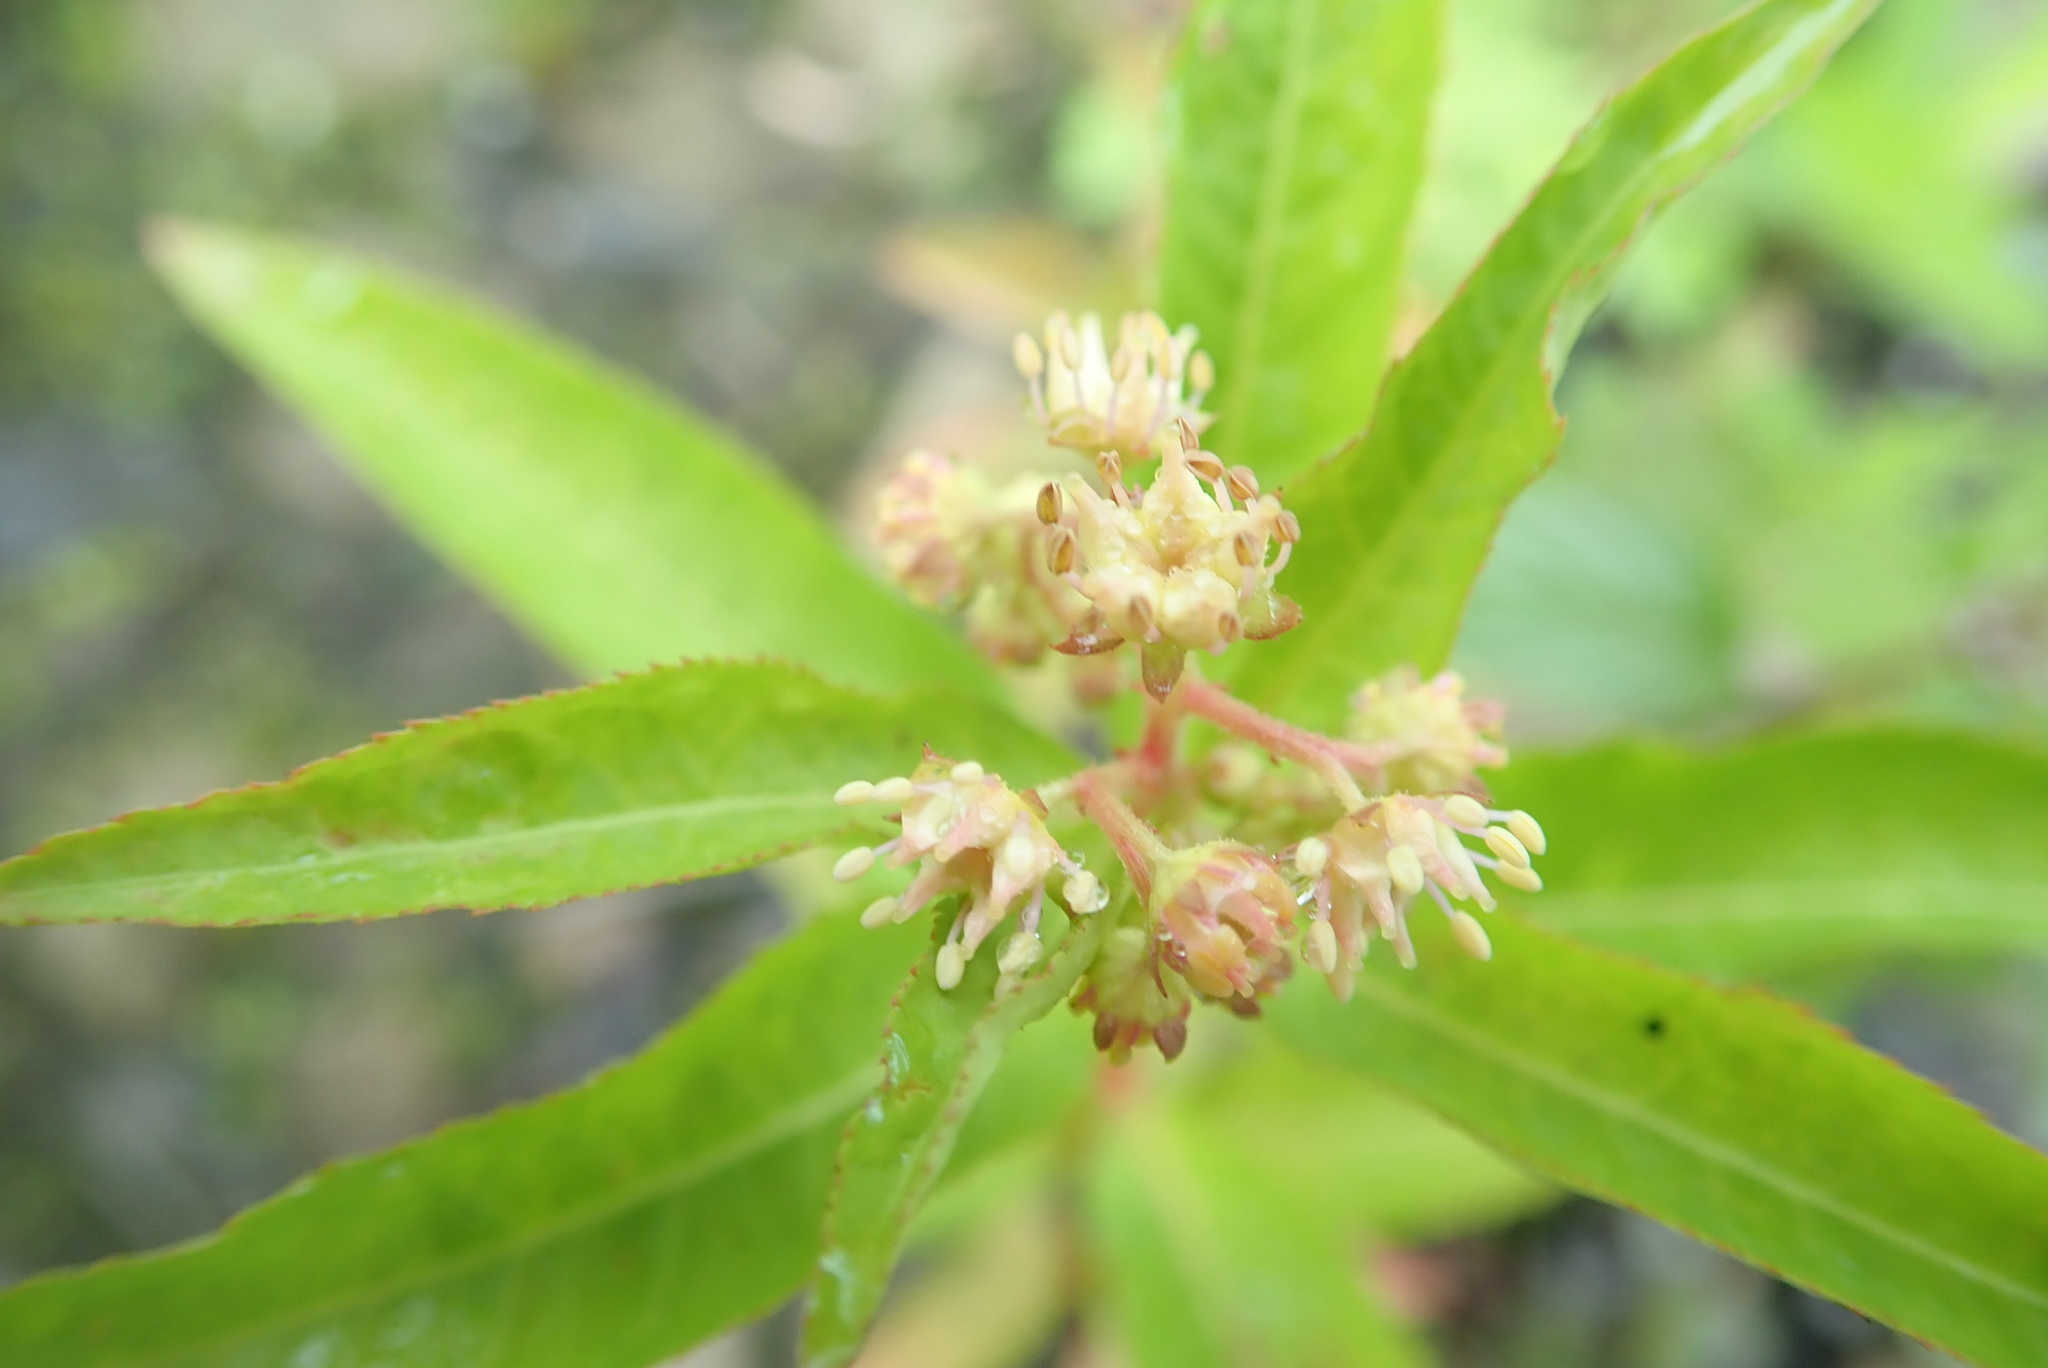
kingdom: Plantae
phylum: Tracheophyta
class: Magnoliopsida
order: Saxifragales
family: Penthoraceae
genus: Penthorum
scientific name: Penthorum sedoides
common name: Ditch stonecrop
